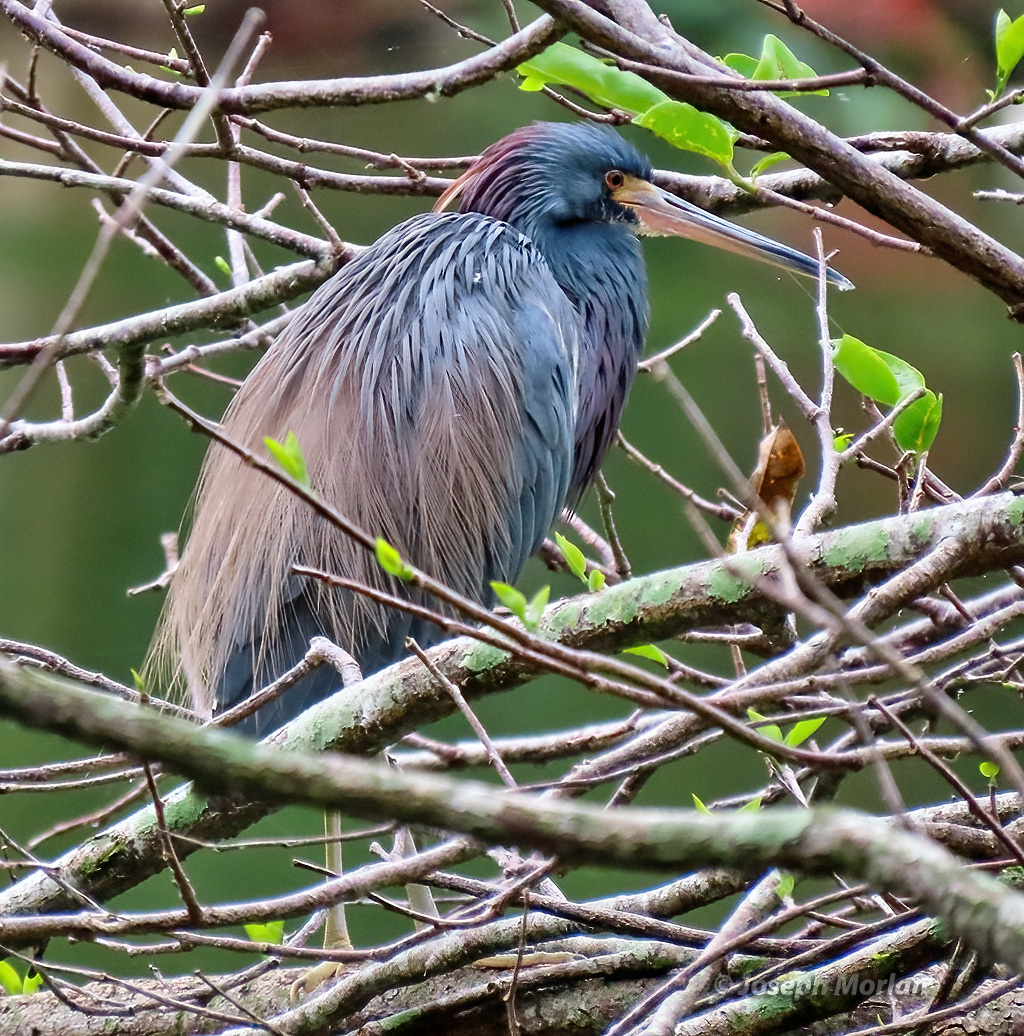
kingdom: Animalia
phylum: Chordata
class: Aves
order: Pelecaniformes
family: Ardeidae
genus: Egretta
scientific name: Egretta tricolor
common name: Tricolored heron
